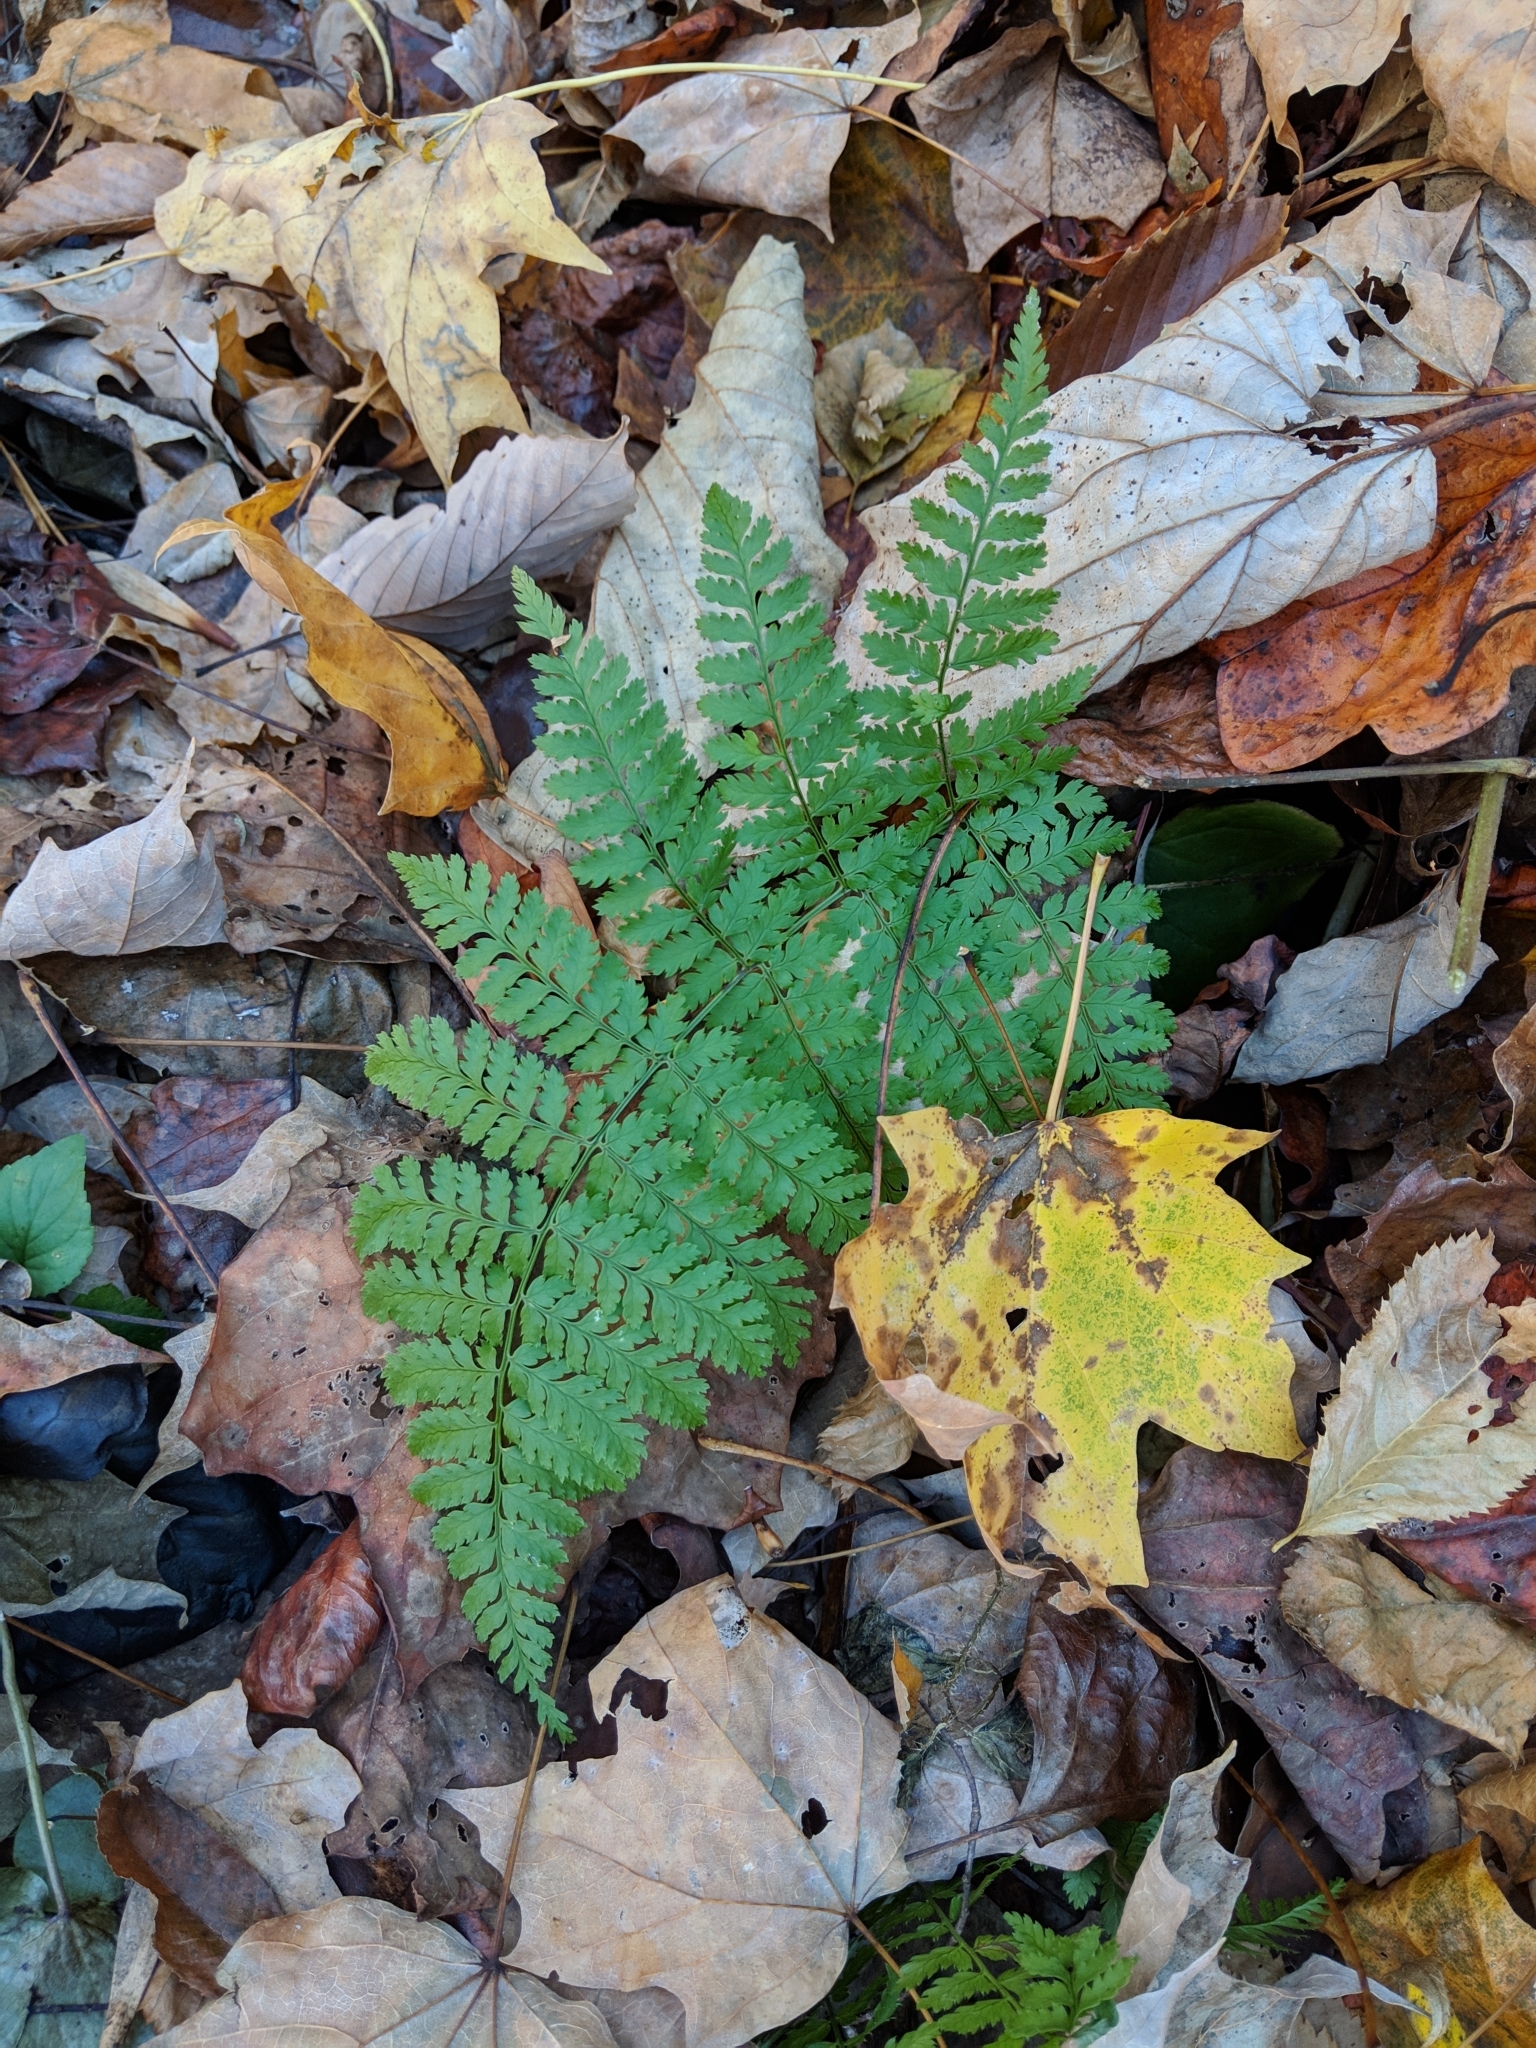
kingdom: Plantae
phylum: Tracheophyta
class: Polypodiopsida
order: Polypodiales
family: Dryopteridaceae
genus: Dryopteris
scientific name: Dryopteris intermedia
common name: Evergreen wood fern
